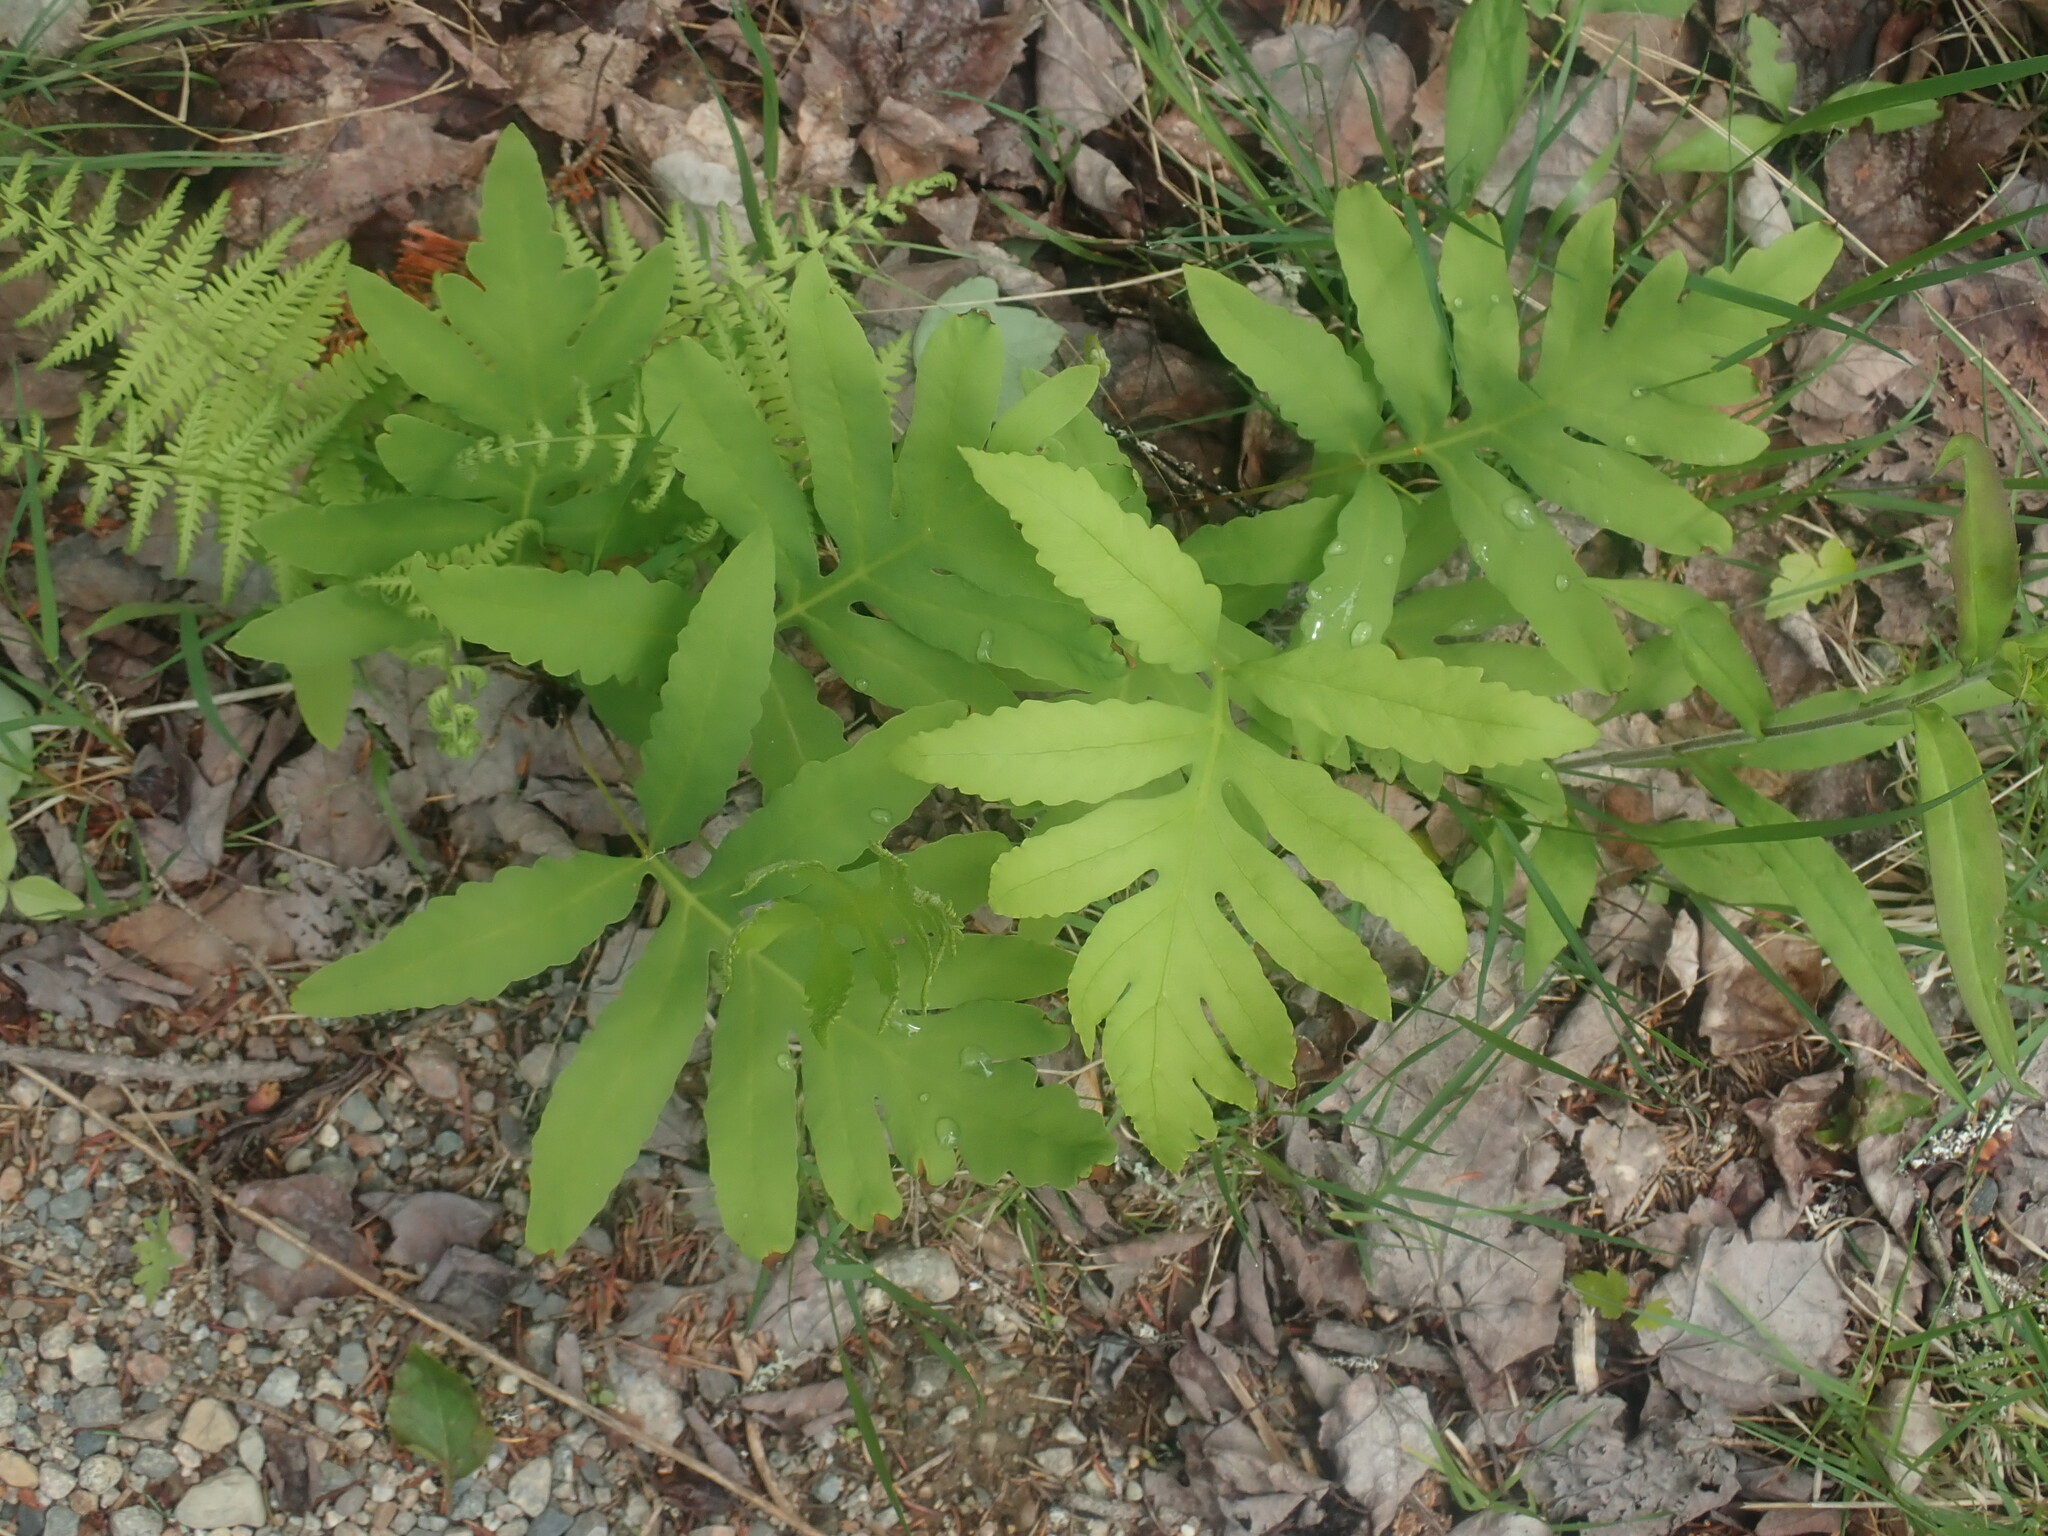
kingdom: Plantae
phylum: Tracheophyta
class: Polypodiopsida
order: Polypodiales
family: Onocleaceae
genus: Onoclea
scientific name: Onoclea sensibilis
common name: Sensitive fern
